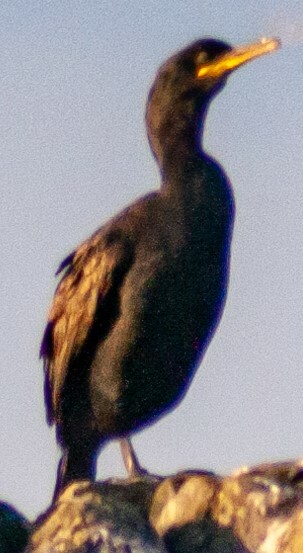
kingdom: Animalia
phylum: Chordata
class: Aves
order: Suliformes
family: Phalacrocoracidae
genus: Phalacrocorax
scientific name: Phalacrocorax aristotelis
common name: European shag
